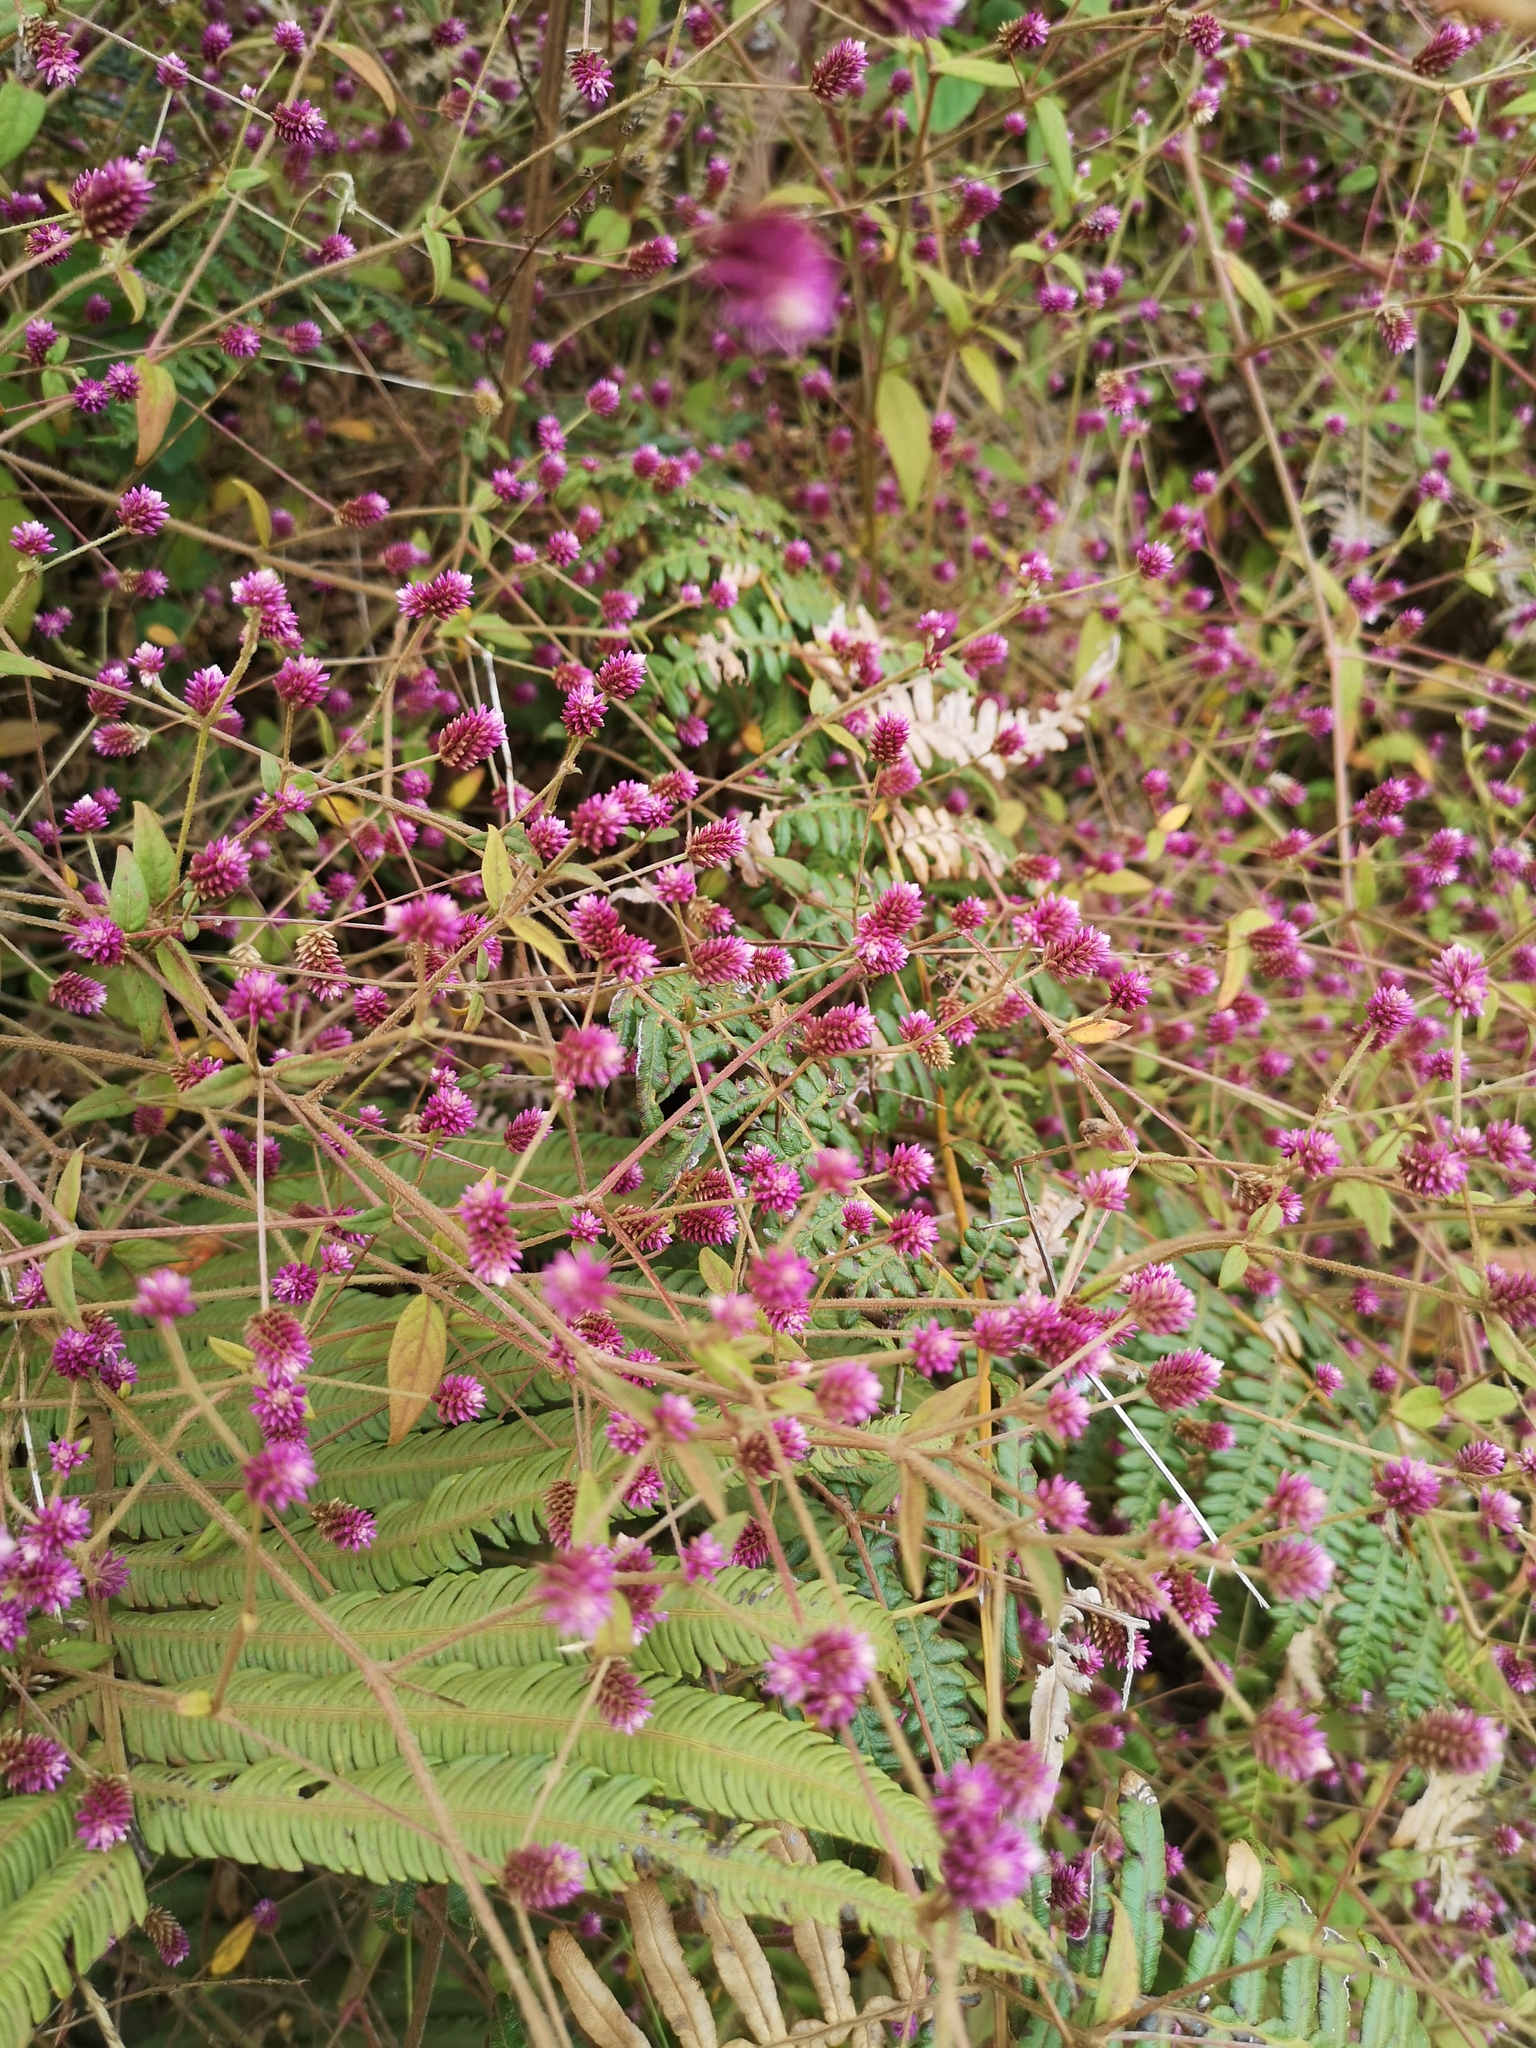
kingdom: Plantae
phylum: Tracheophyta
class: Magnoliopsida
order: Caryophyllales
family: Amaranthaceae
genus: Alternanthera
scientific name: Alternanthera porrigens
